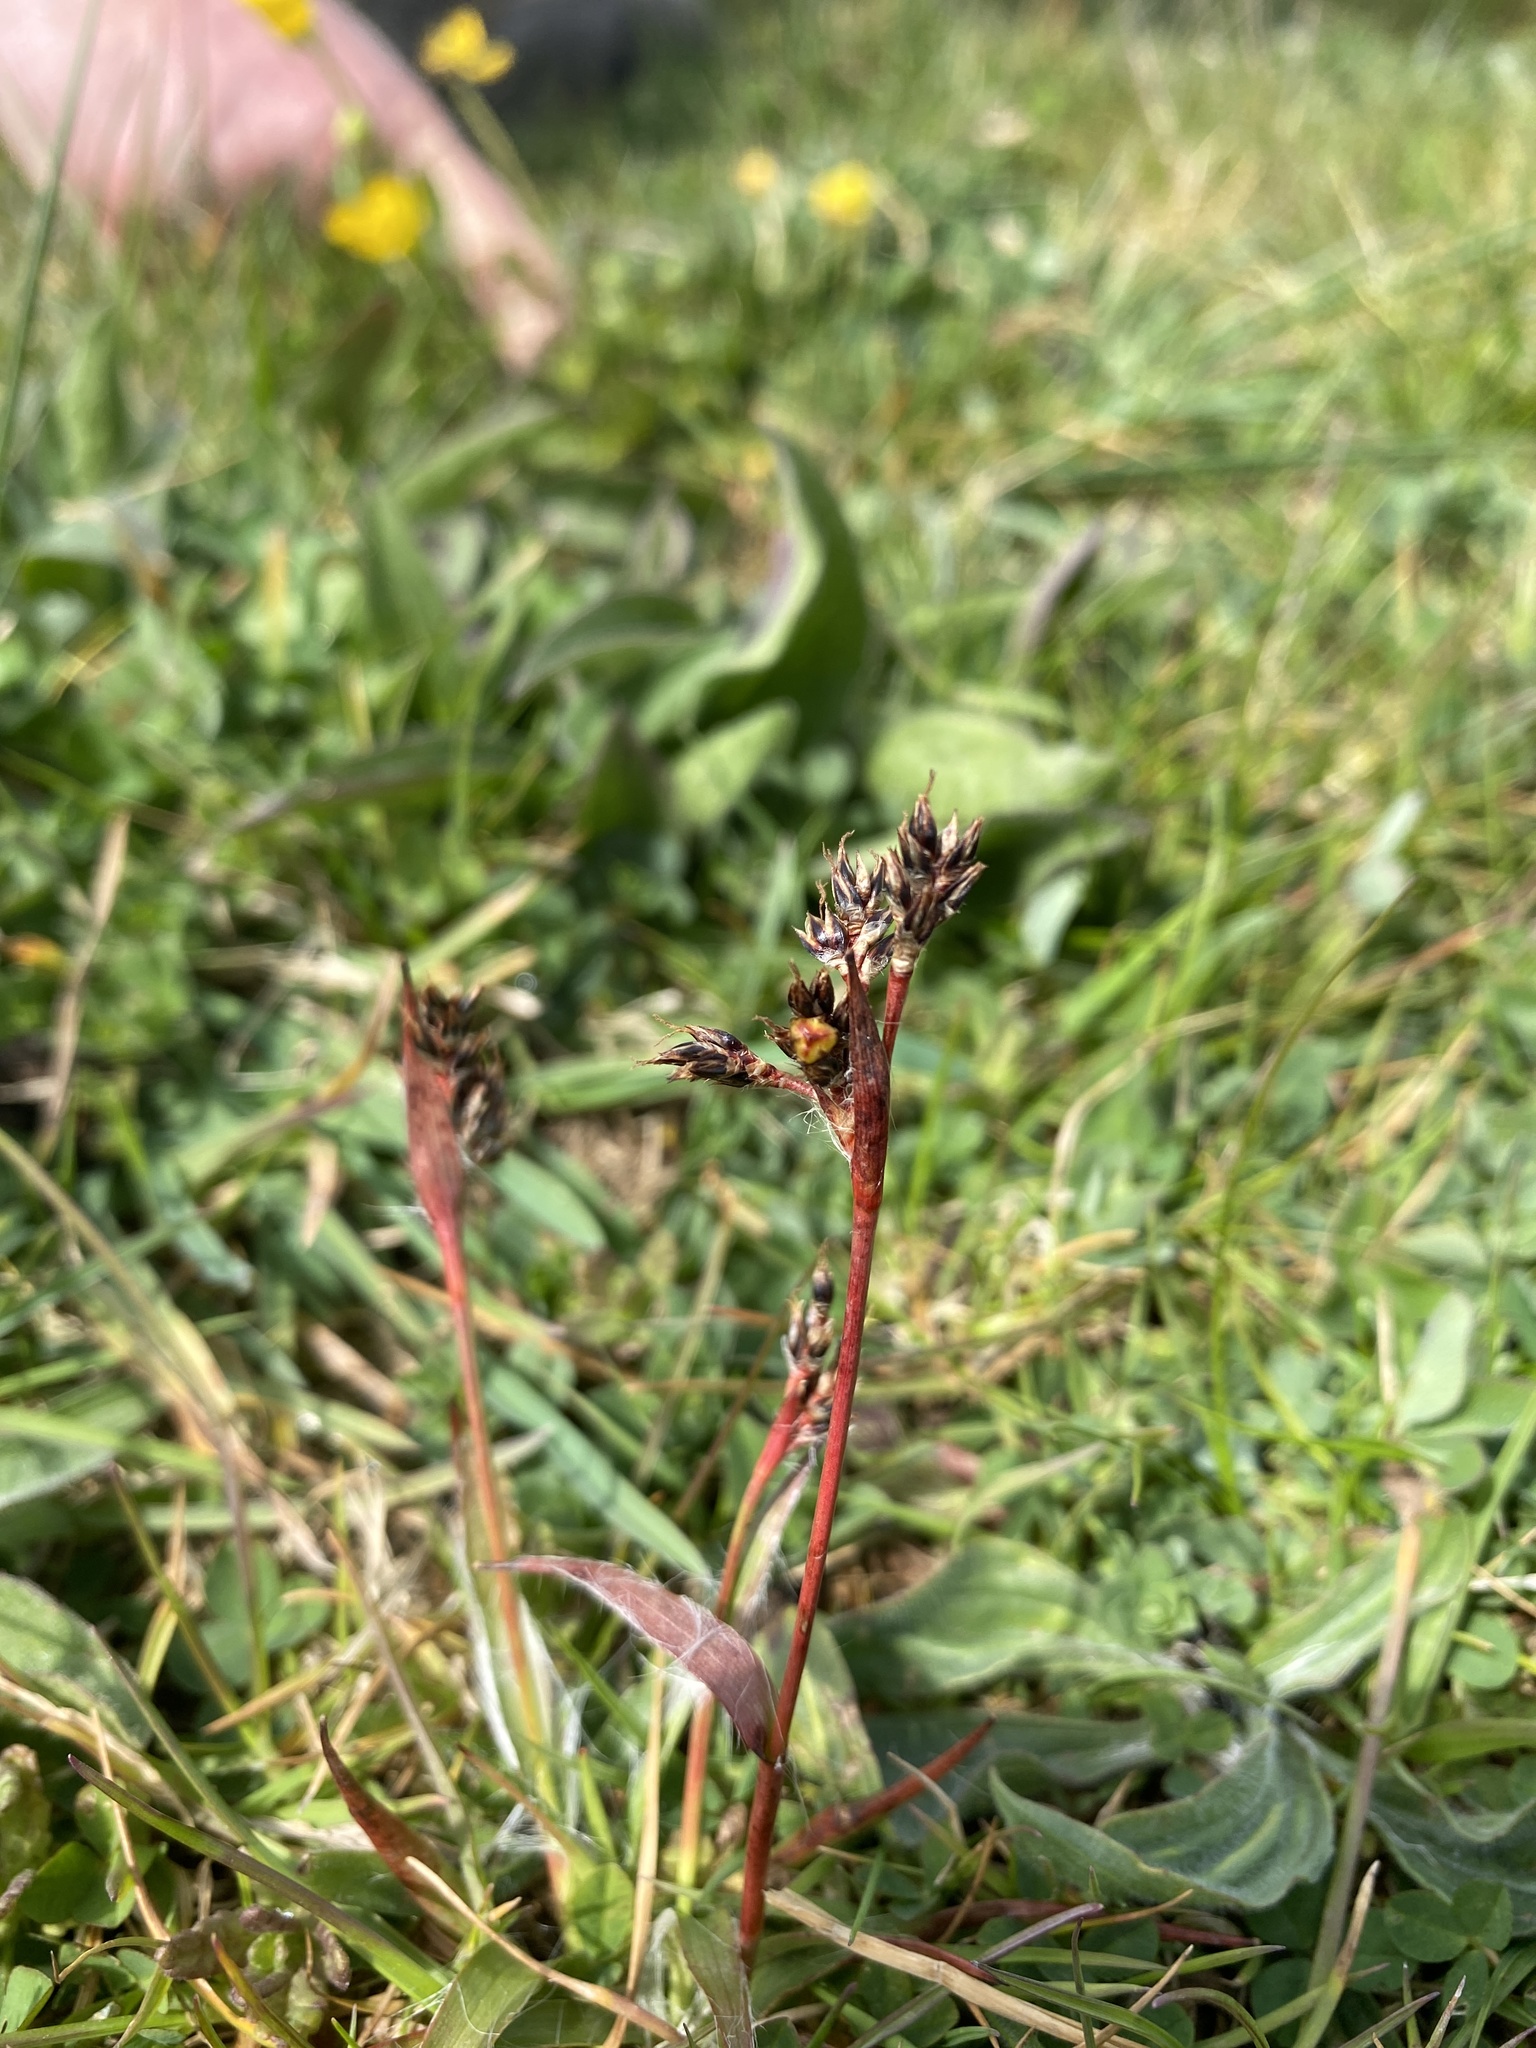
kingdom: Plantae
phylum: Tracheophyta
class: Liliopsida
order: Poales
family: Juncaceae
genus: Luzula
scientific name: Luzula campestris
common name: Field wood-rush
